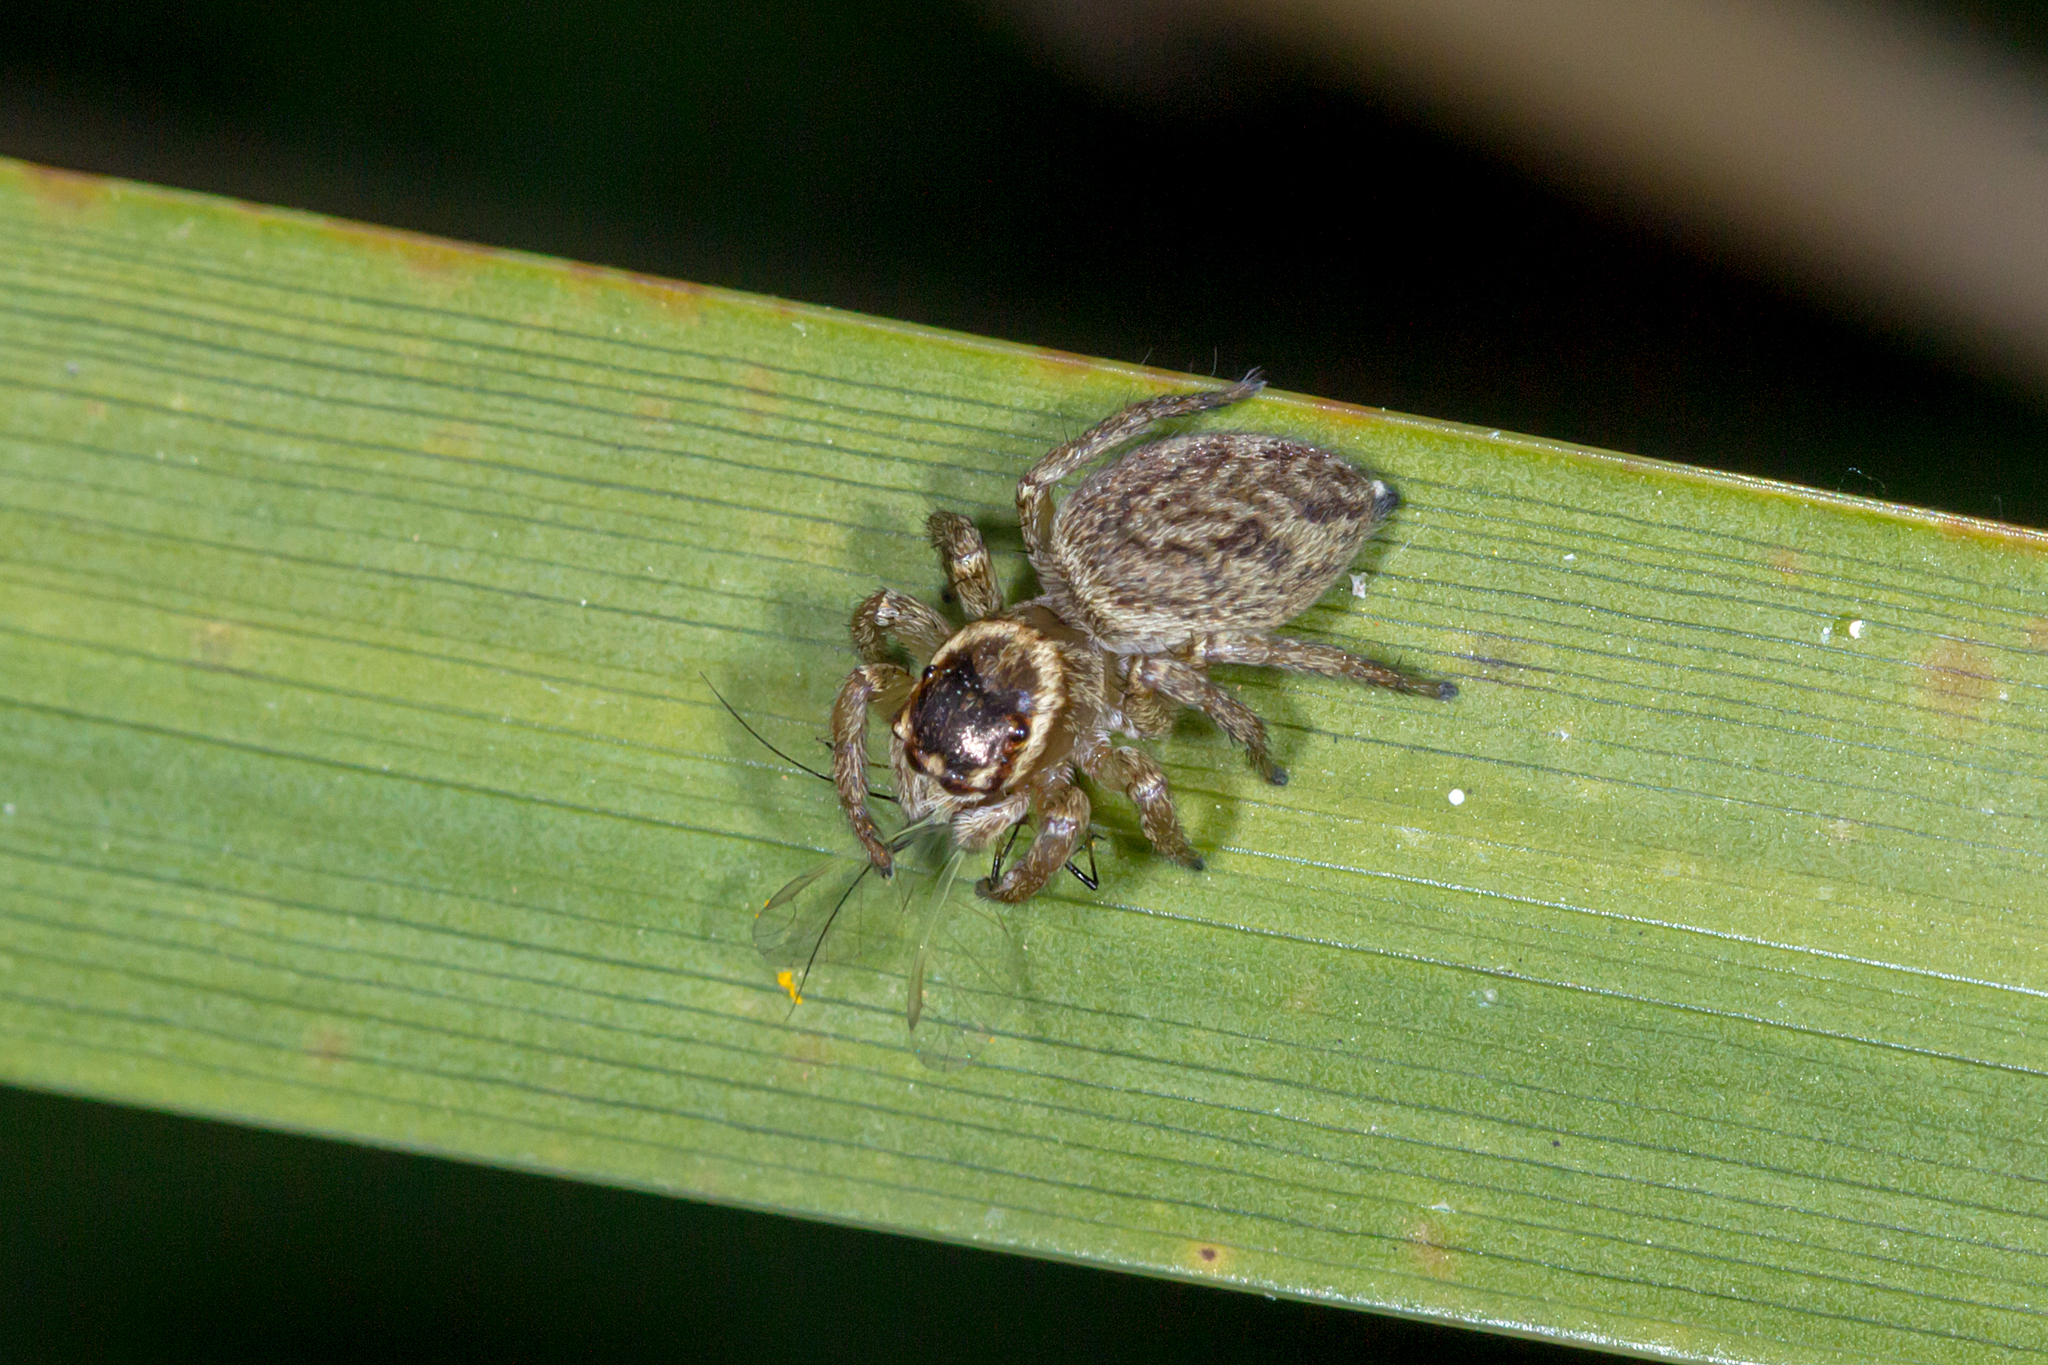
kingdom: Animalia
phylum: Arthropoda
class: Arachnida
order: Araneae
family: Salticidae
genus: Maratus
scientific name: Maratus griseus
